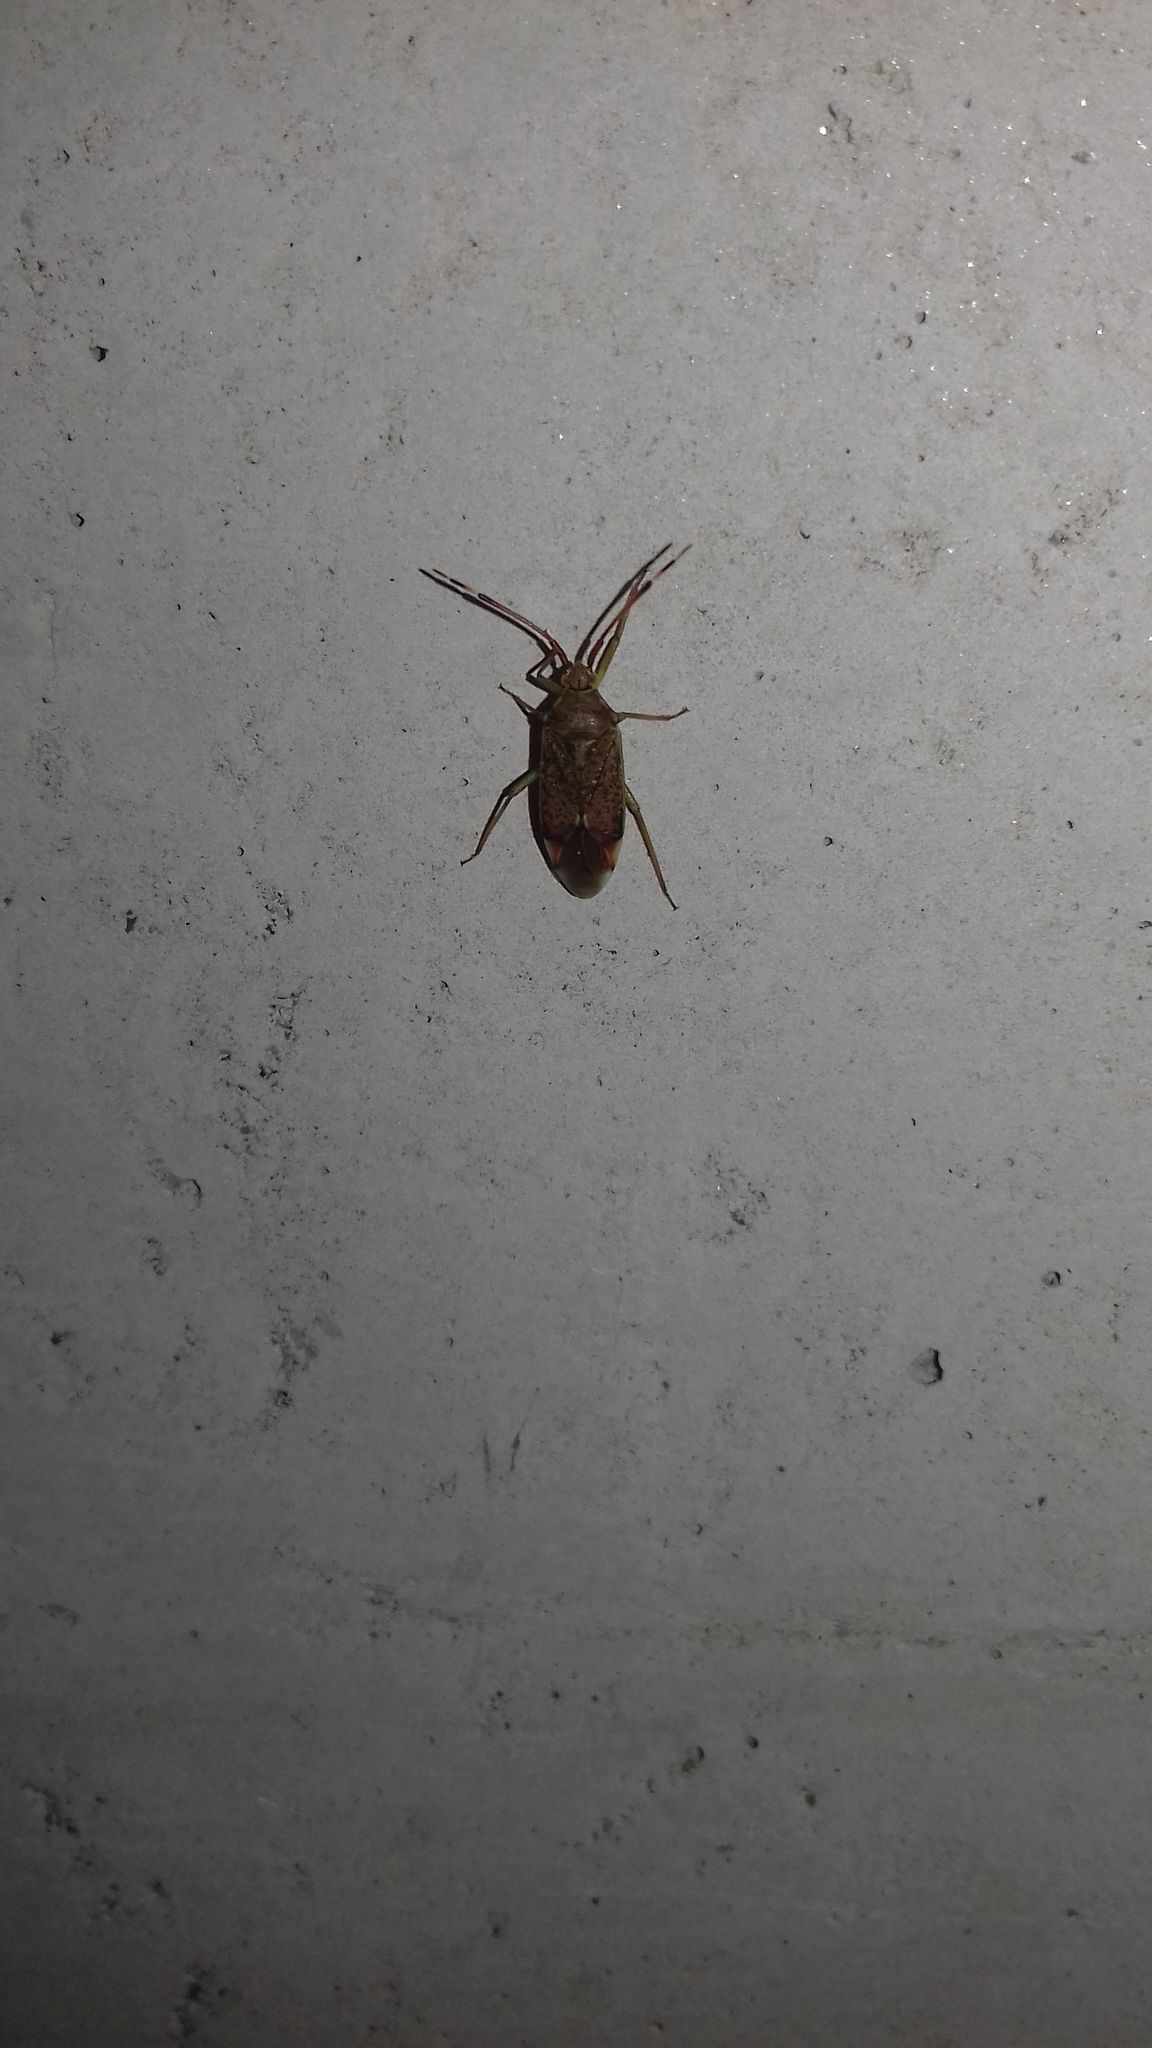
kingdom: Animalia
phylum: Arthropoda
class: Insecta
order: Hemiptera
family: Miridae
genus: Pantilius
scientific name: Pantilius tunicatus
